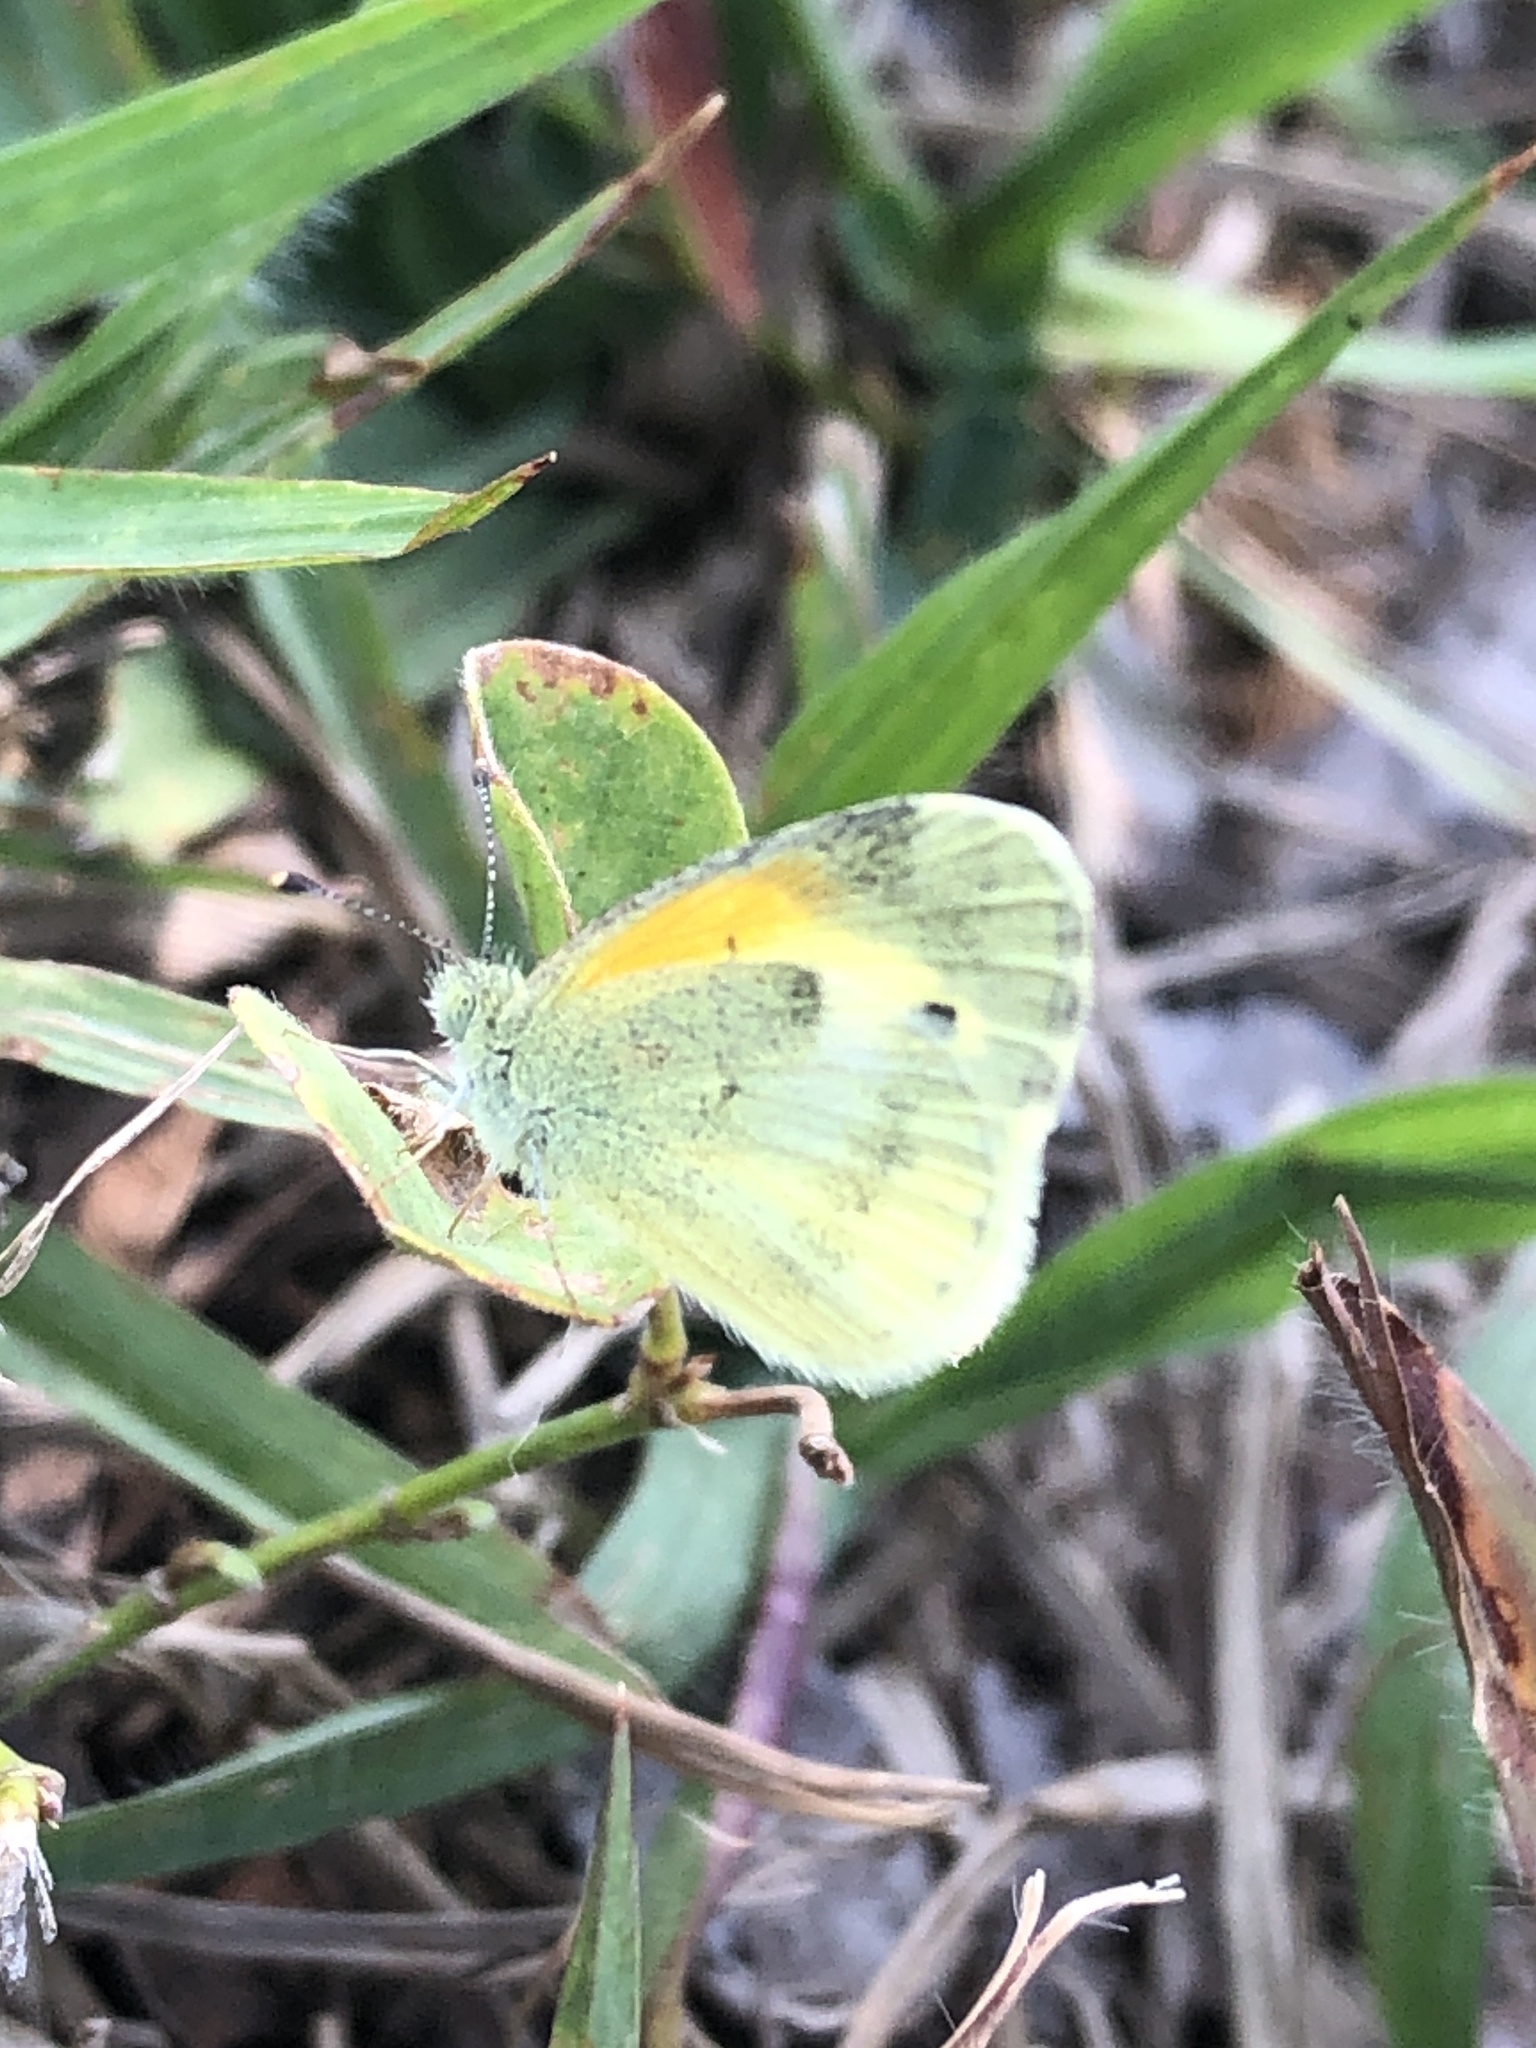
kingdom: Animalia
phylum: Arthropoda
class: Insecta
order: Lepidoptera
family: Pieridae
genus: Nathalis
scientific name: Nathalis iole
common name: Dainty sulphur
